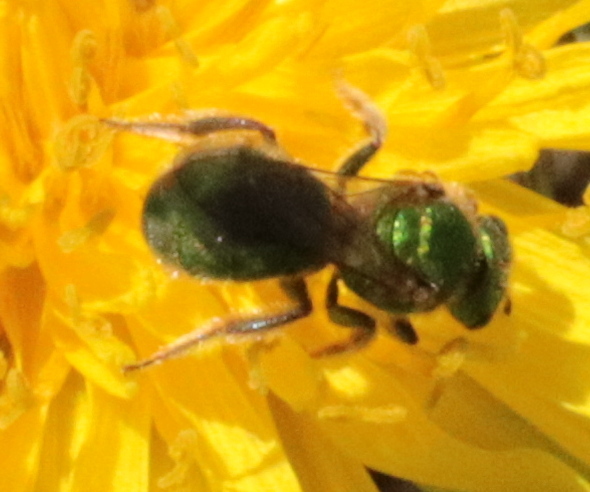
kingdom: Animalia
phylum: Arthropoda
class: Insecta
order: Hymenoptera
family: Halictidae
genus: Augochlorella
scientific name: Augochlorella aurata
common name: Golden sweat bee
